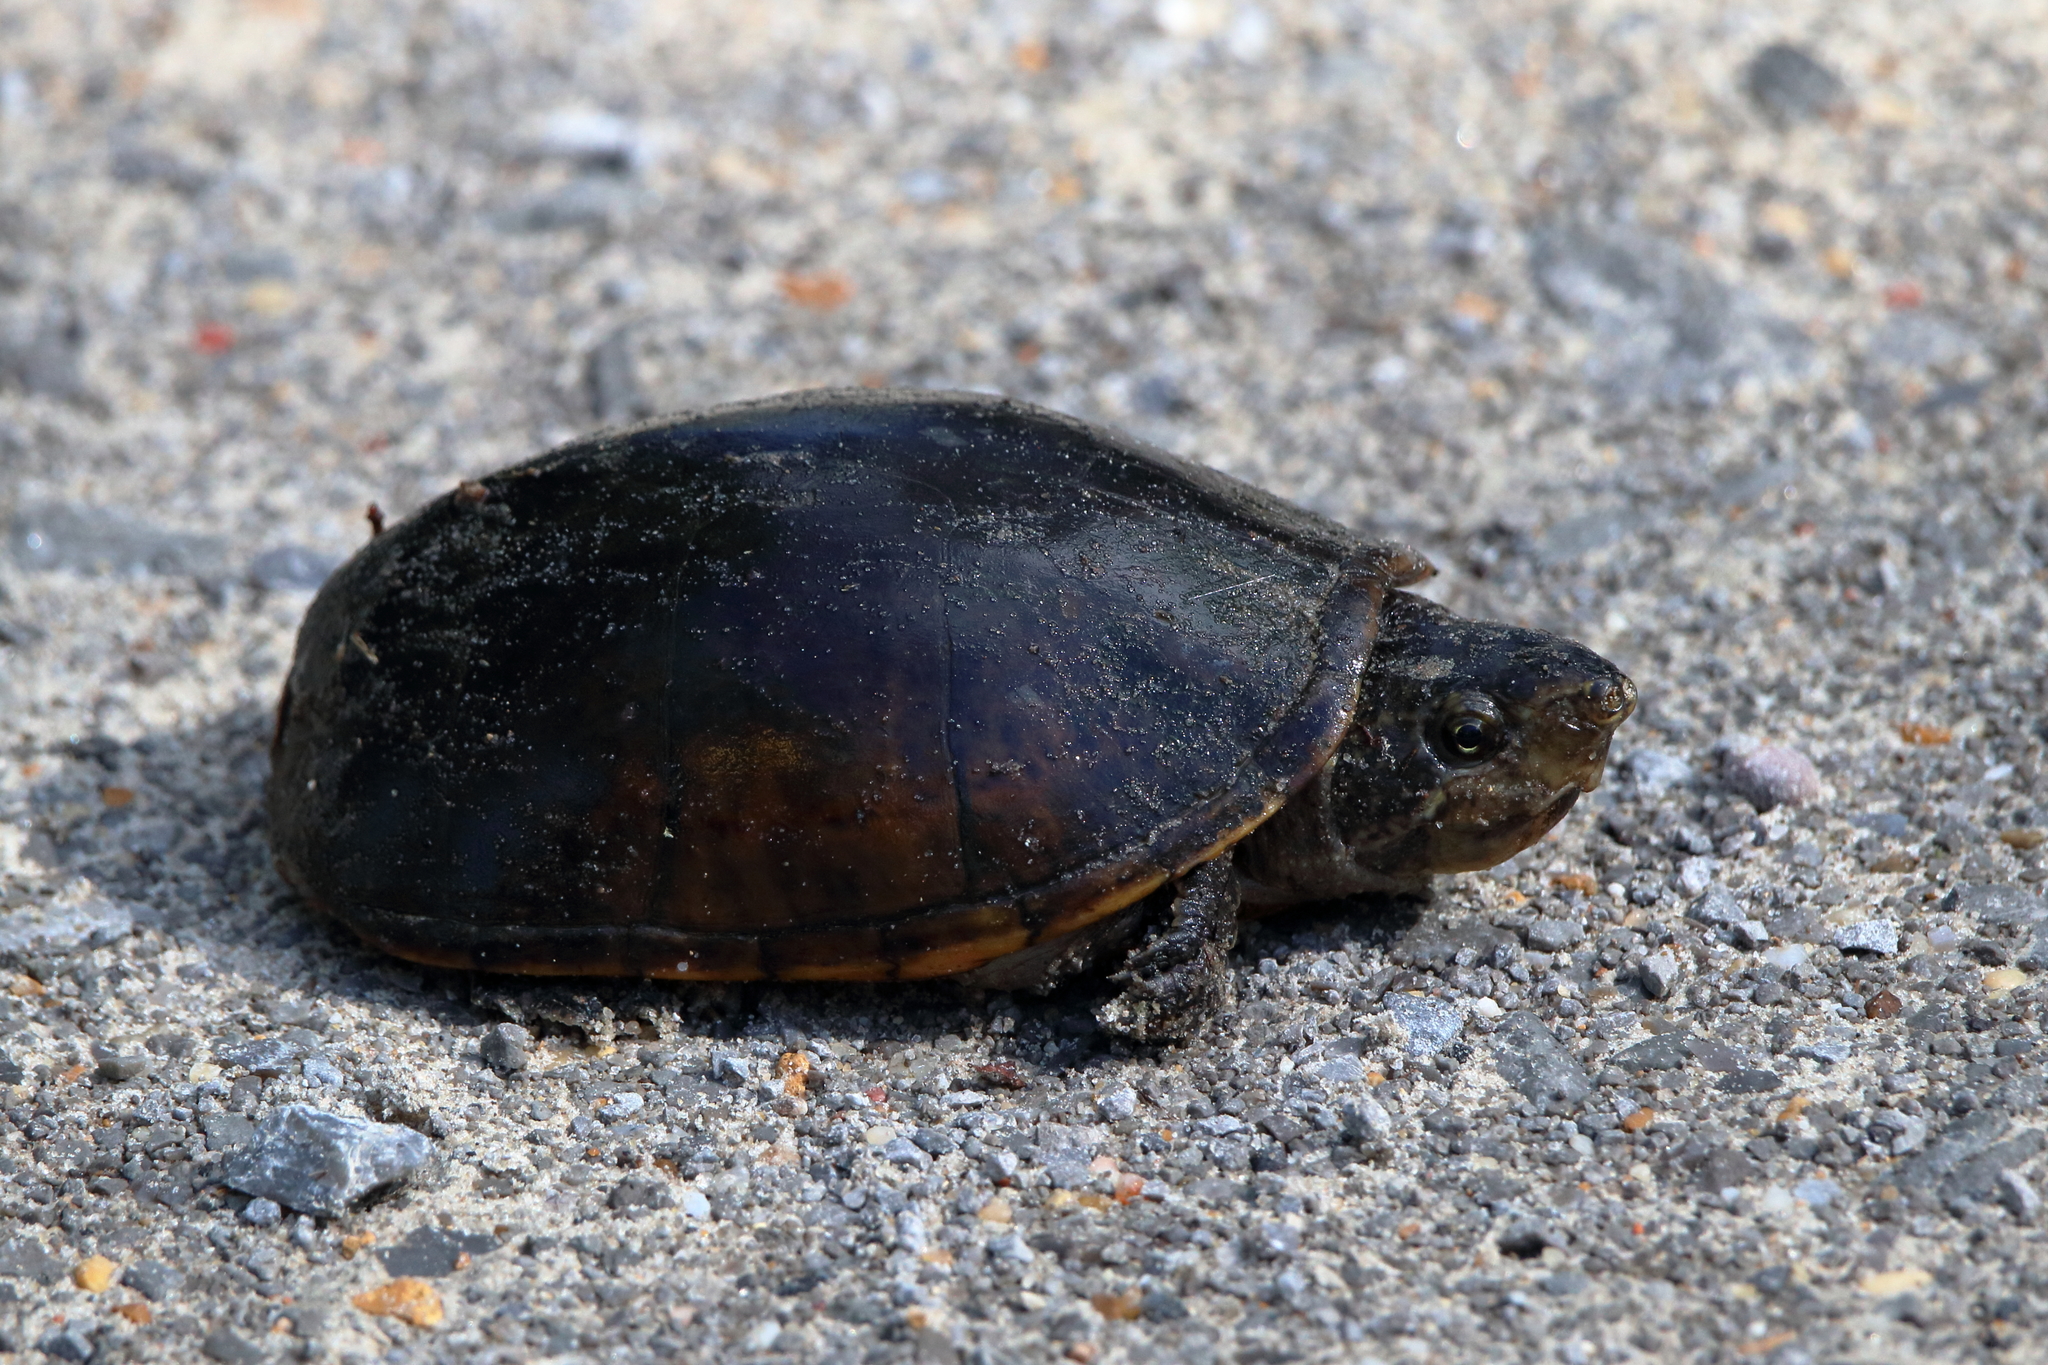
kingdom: Animalia
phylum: Chordata
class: Testudines
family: Kinosternidae
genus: Sternotherus
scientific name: Sternotherus odoratus
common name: Common musk turtle
